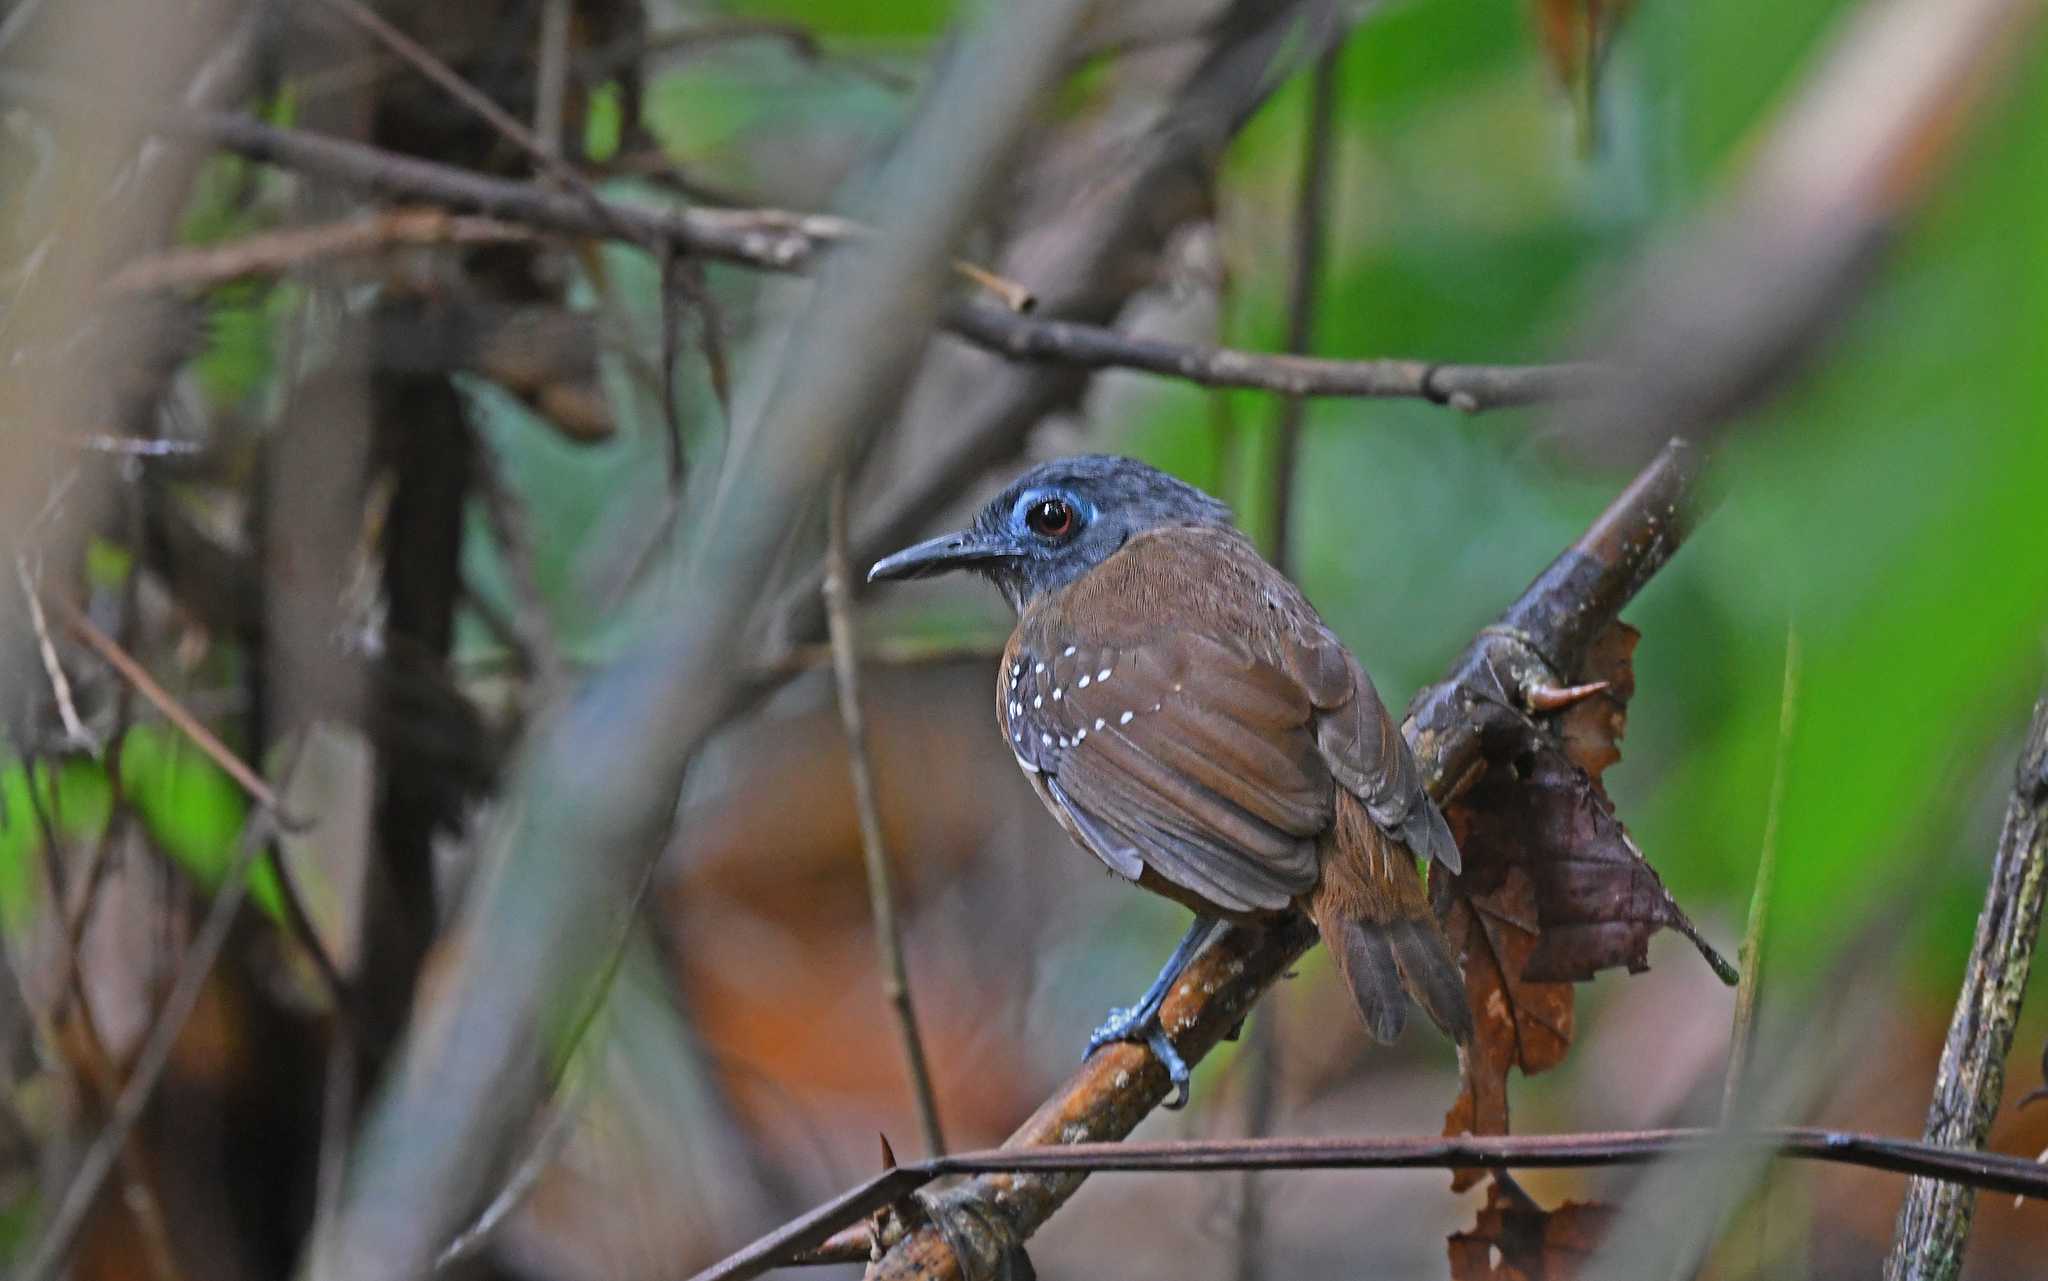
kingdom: Animalia
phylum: Chordata
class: Aves
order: Passeriformes
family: Thamnophilidae
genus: Myrmeciza
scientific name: Myrmeciza exsul
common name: Chestnut-backed antbird
